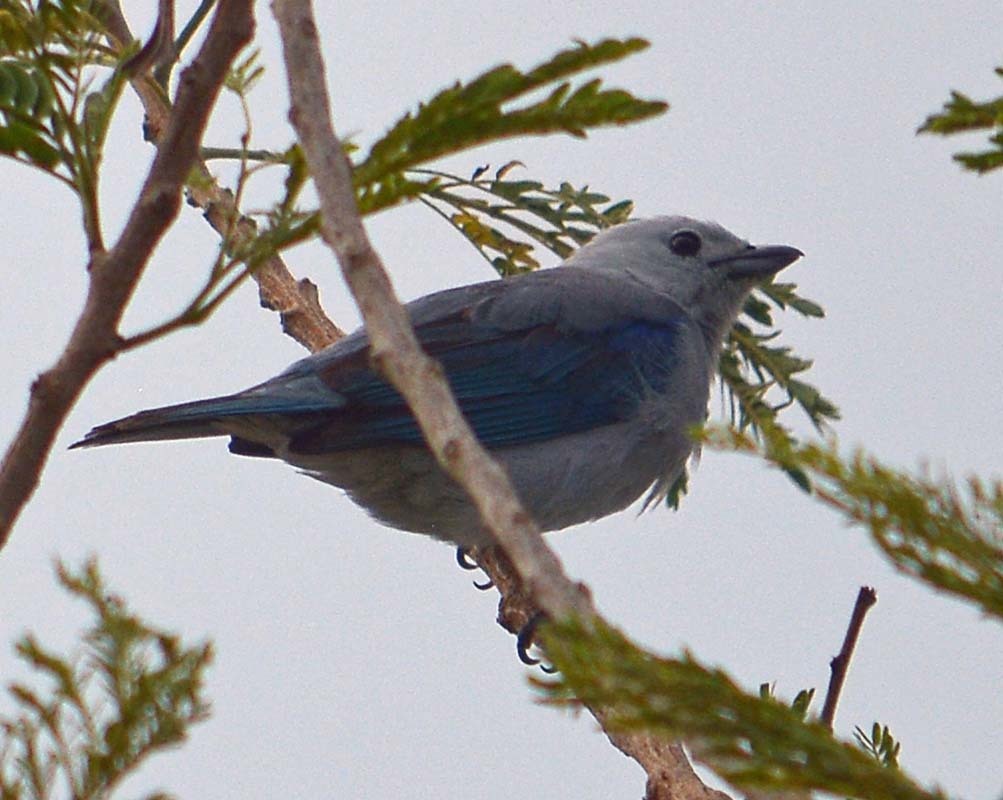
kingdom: Animalia
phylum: Chordata
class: Aves
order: Passeriformes
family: Thraupidae
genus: Thraupis
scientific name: Thraupis episcopus
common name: Blue-grey tanager
